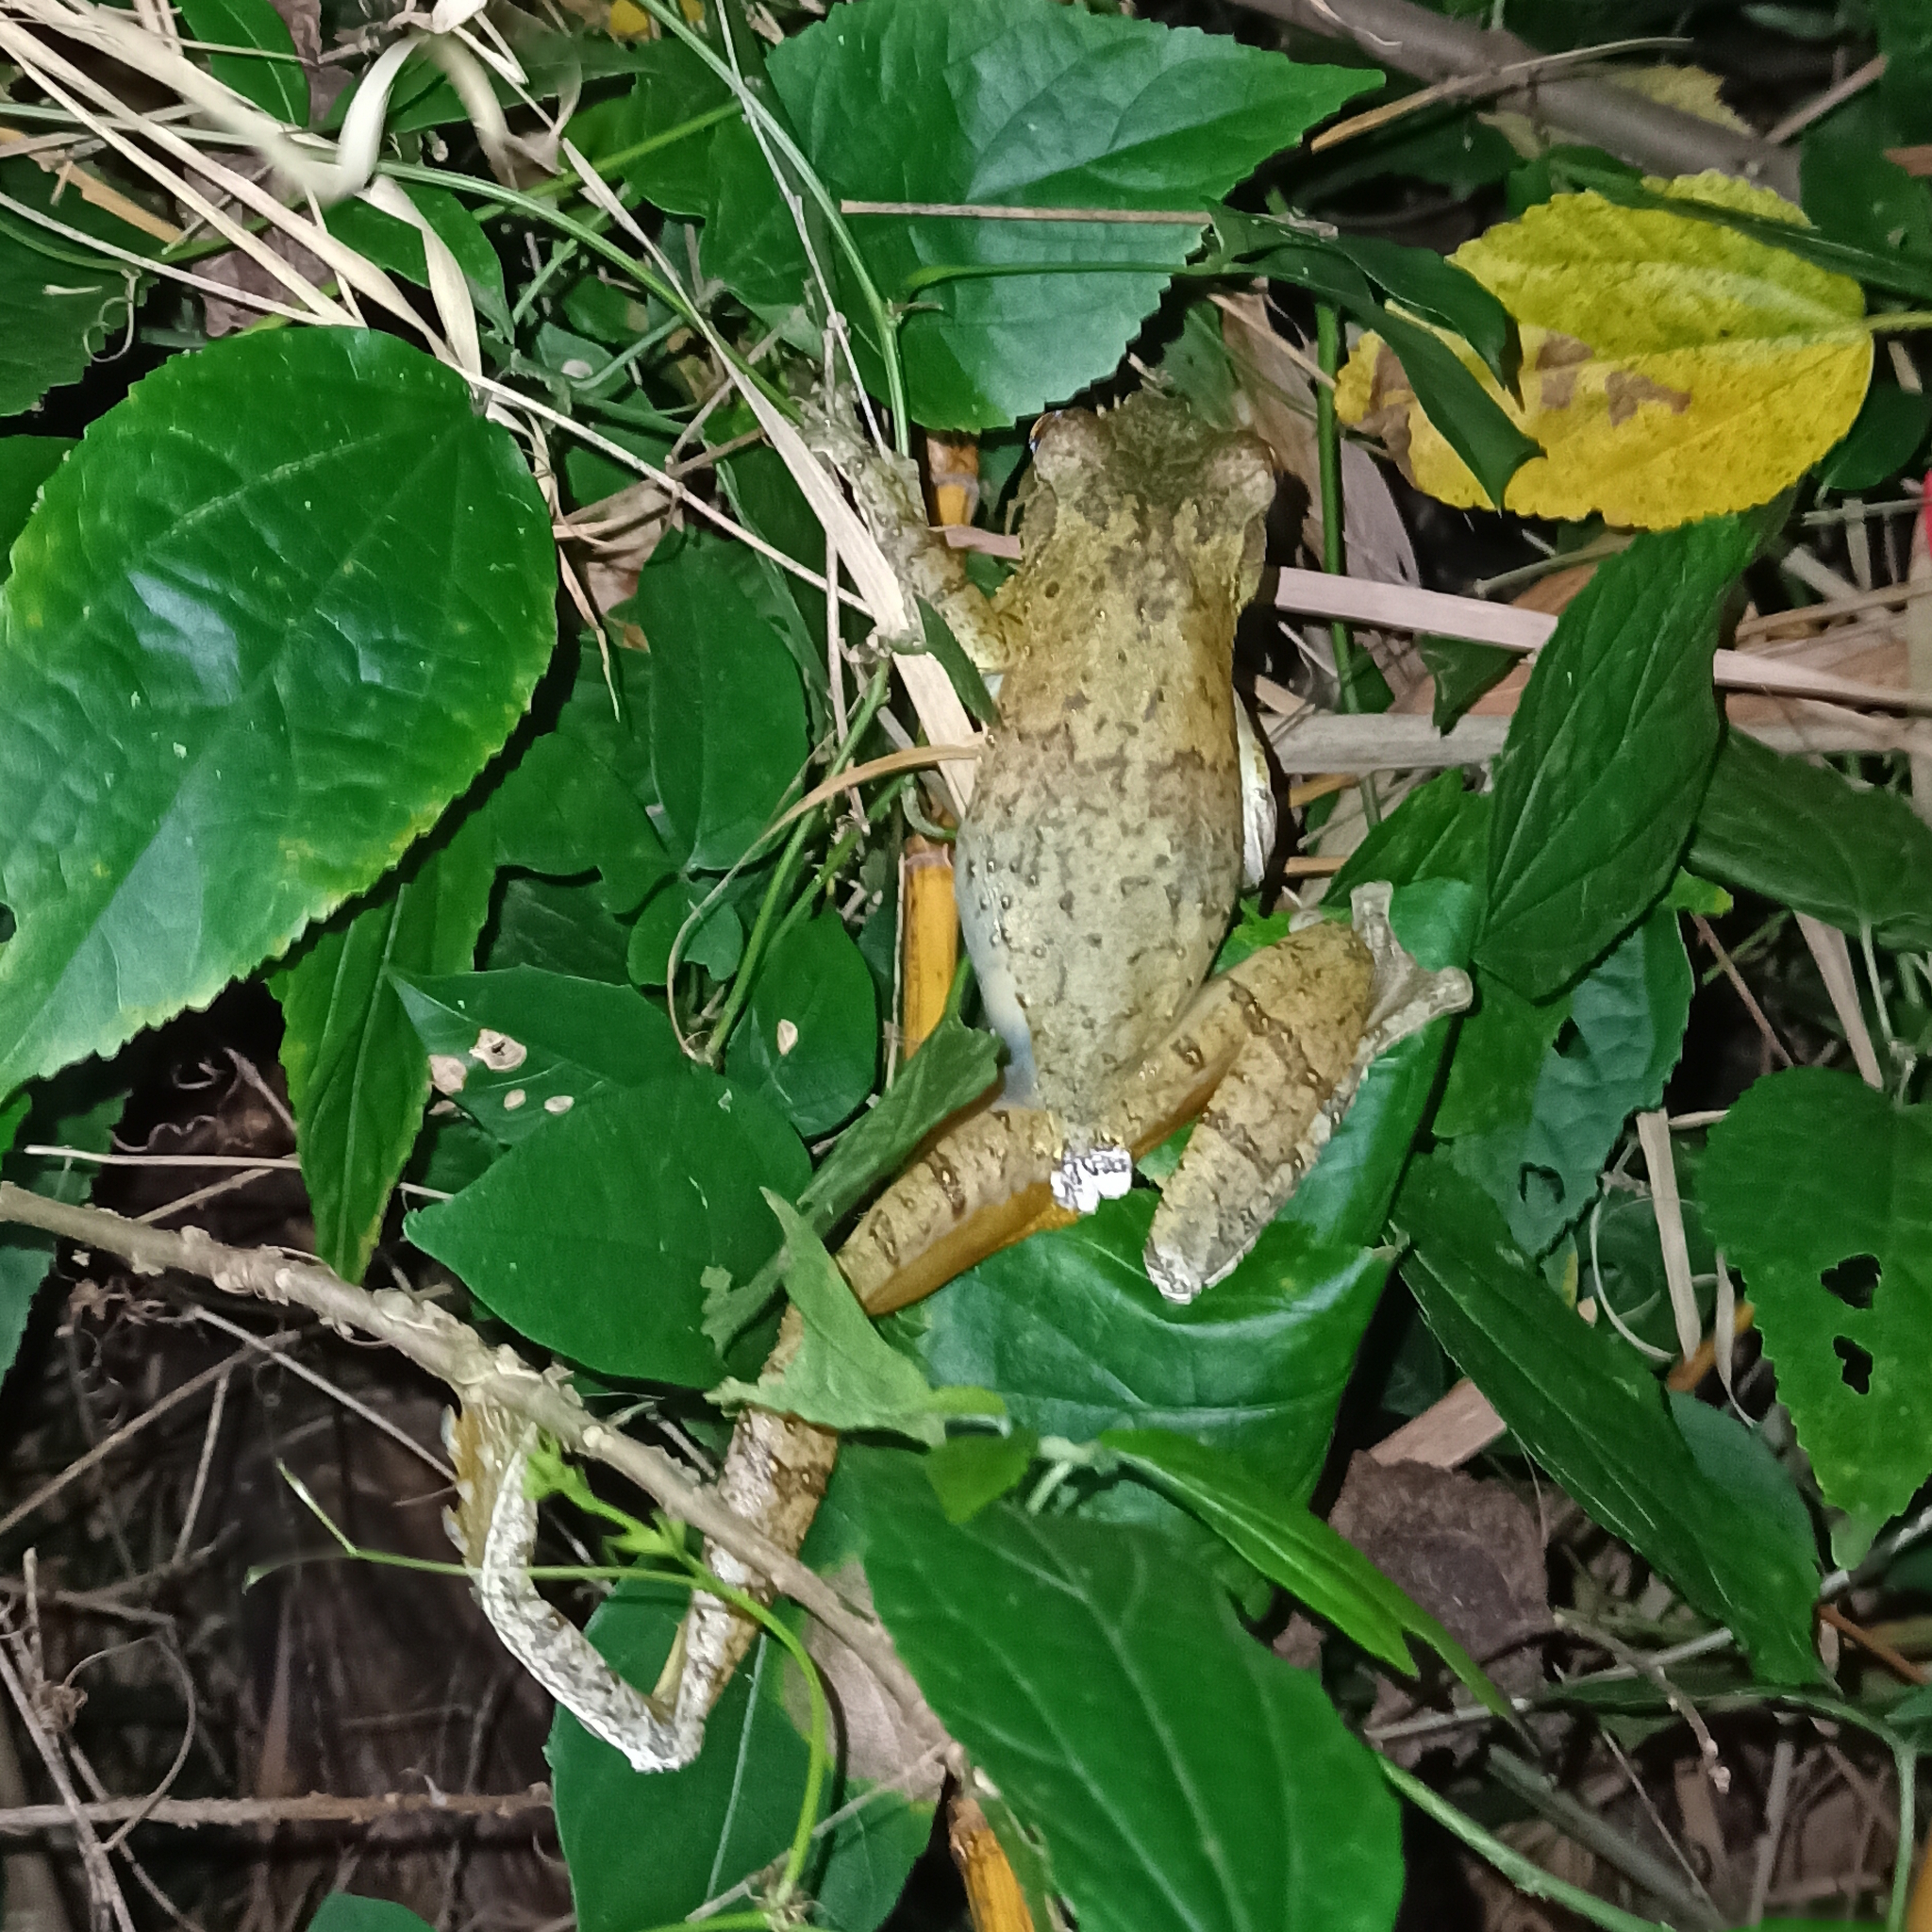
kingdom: Animalia
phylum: Chordata
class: Amphibia
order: Anura
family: Hylidae
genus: Itapotihyla
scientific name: Itapotihyla langsdorffii
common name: Ocellated treefrog
